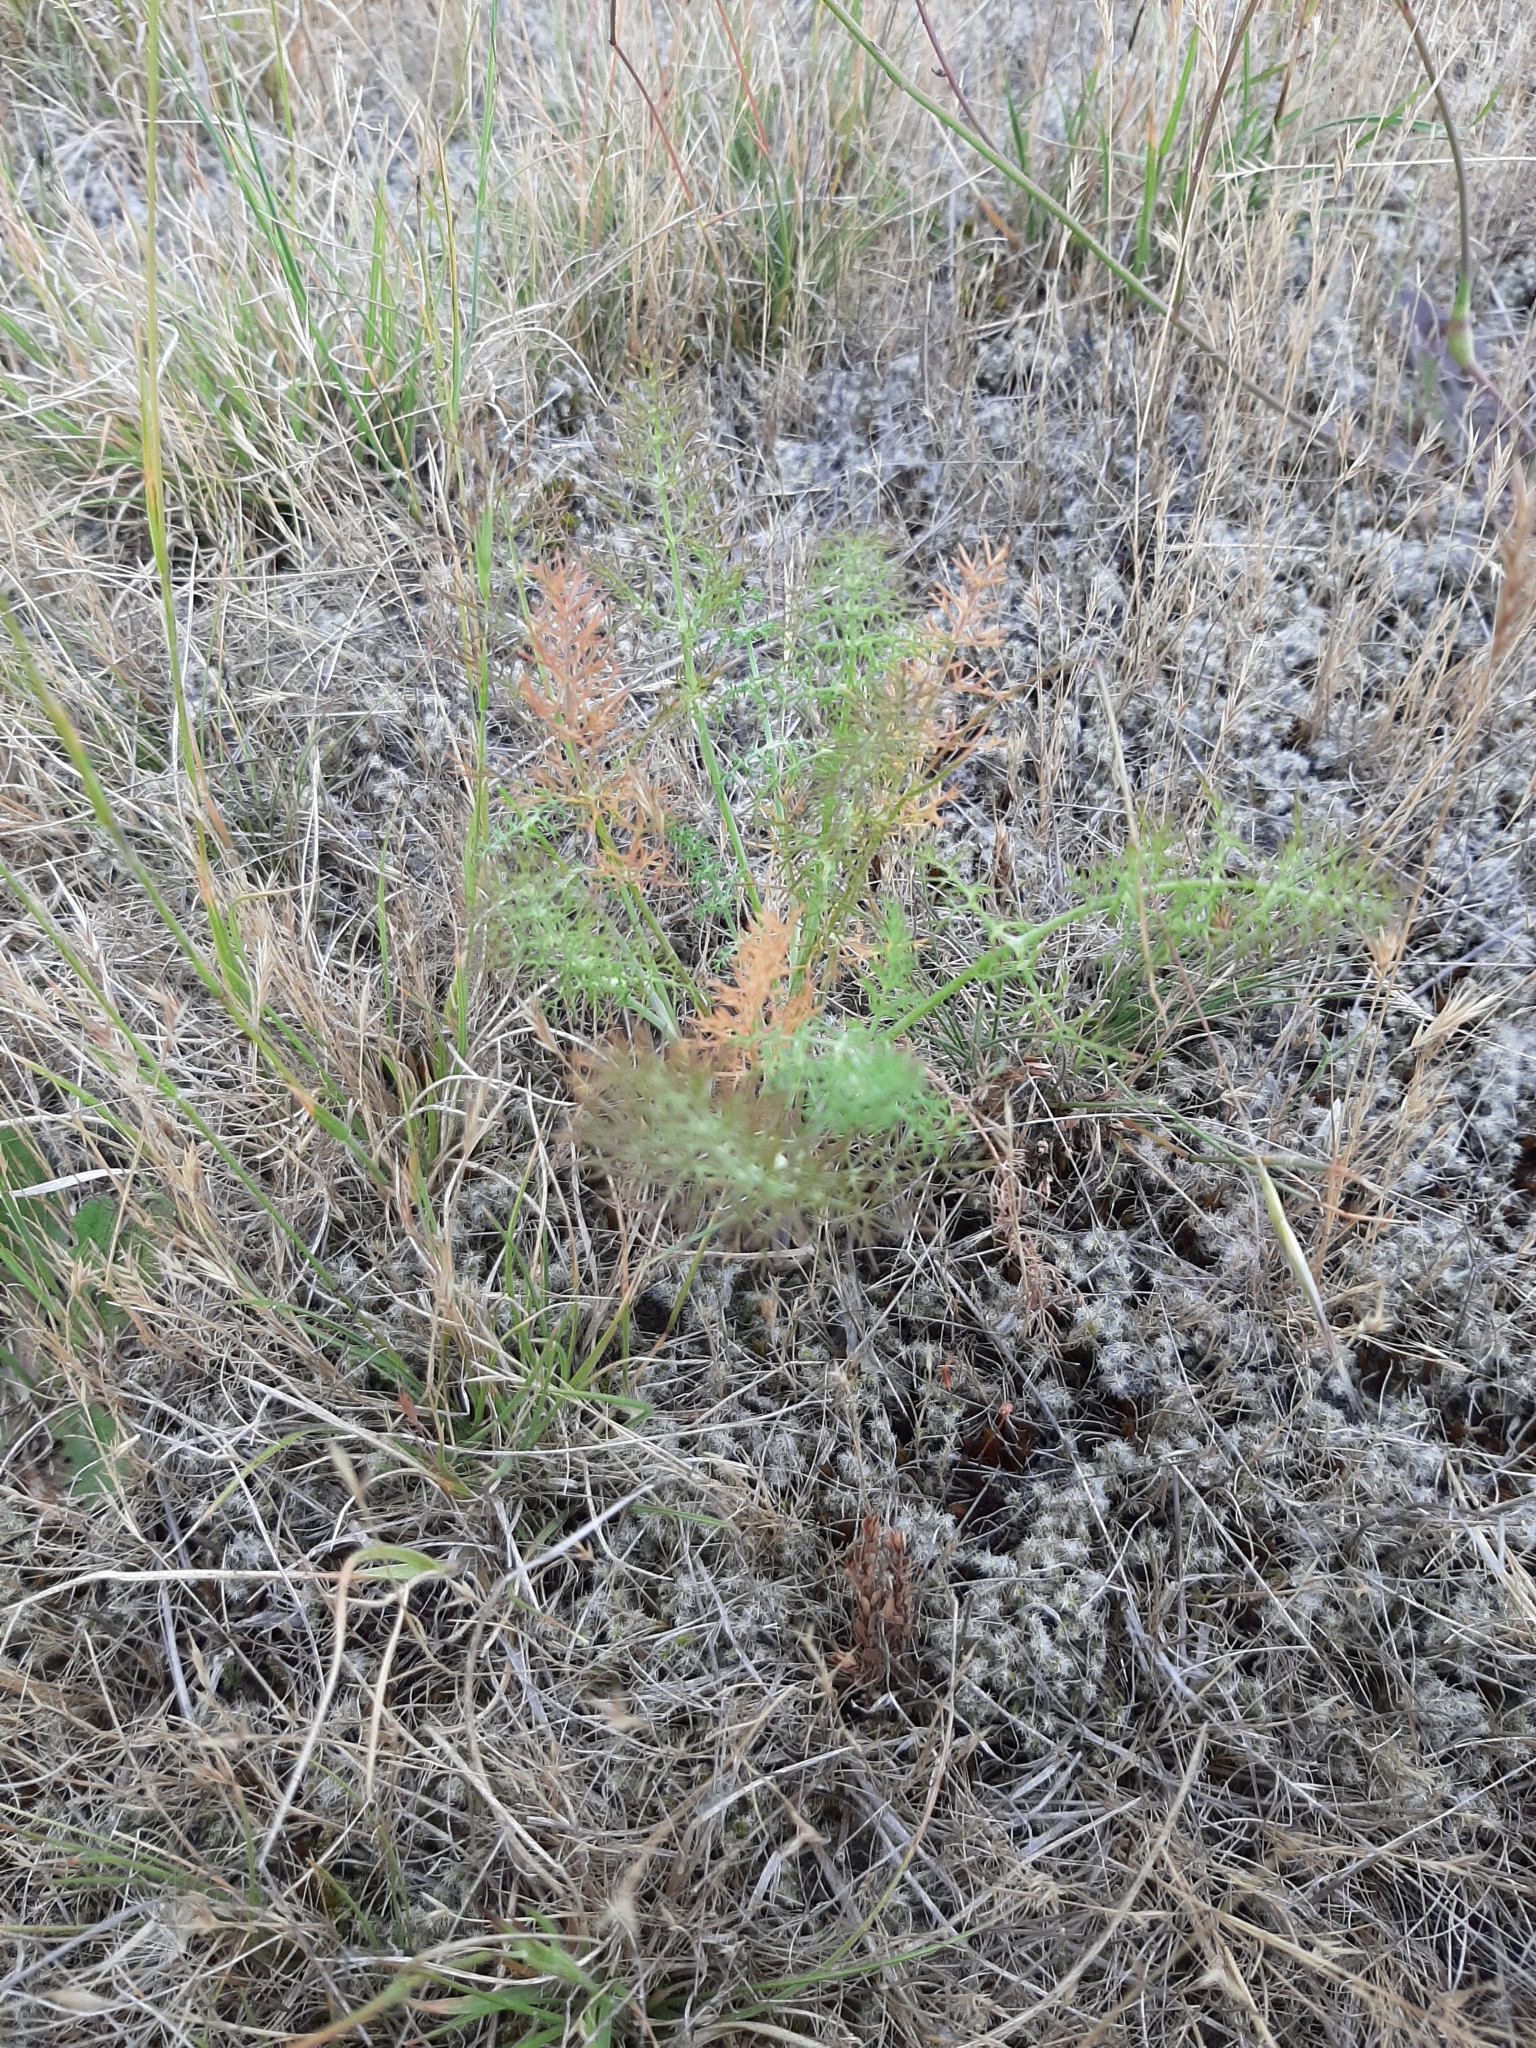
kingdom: Plantae
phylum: Tracheophyta
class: Magnoliopsida
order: Apiales
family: Apiaceae
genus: Foeniculum
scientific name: Foeniculum vulgare
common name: Fennel
